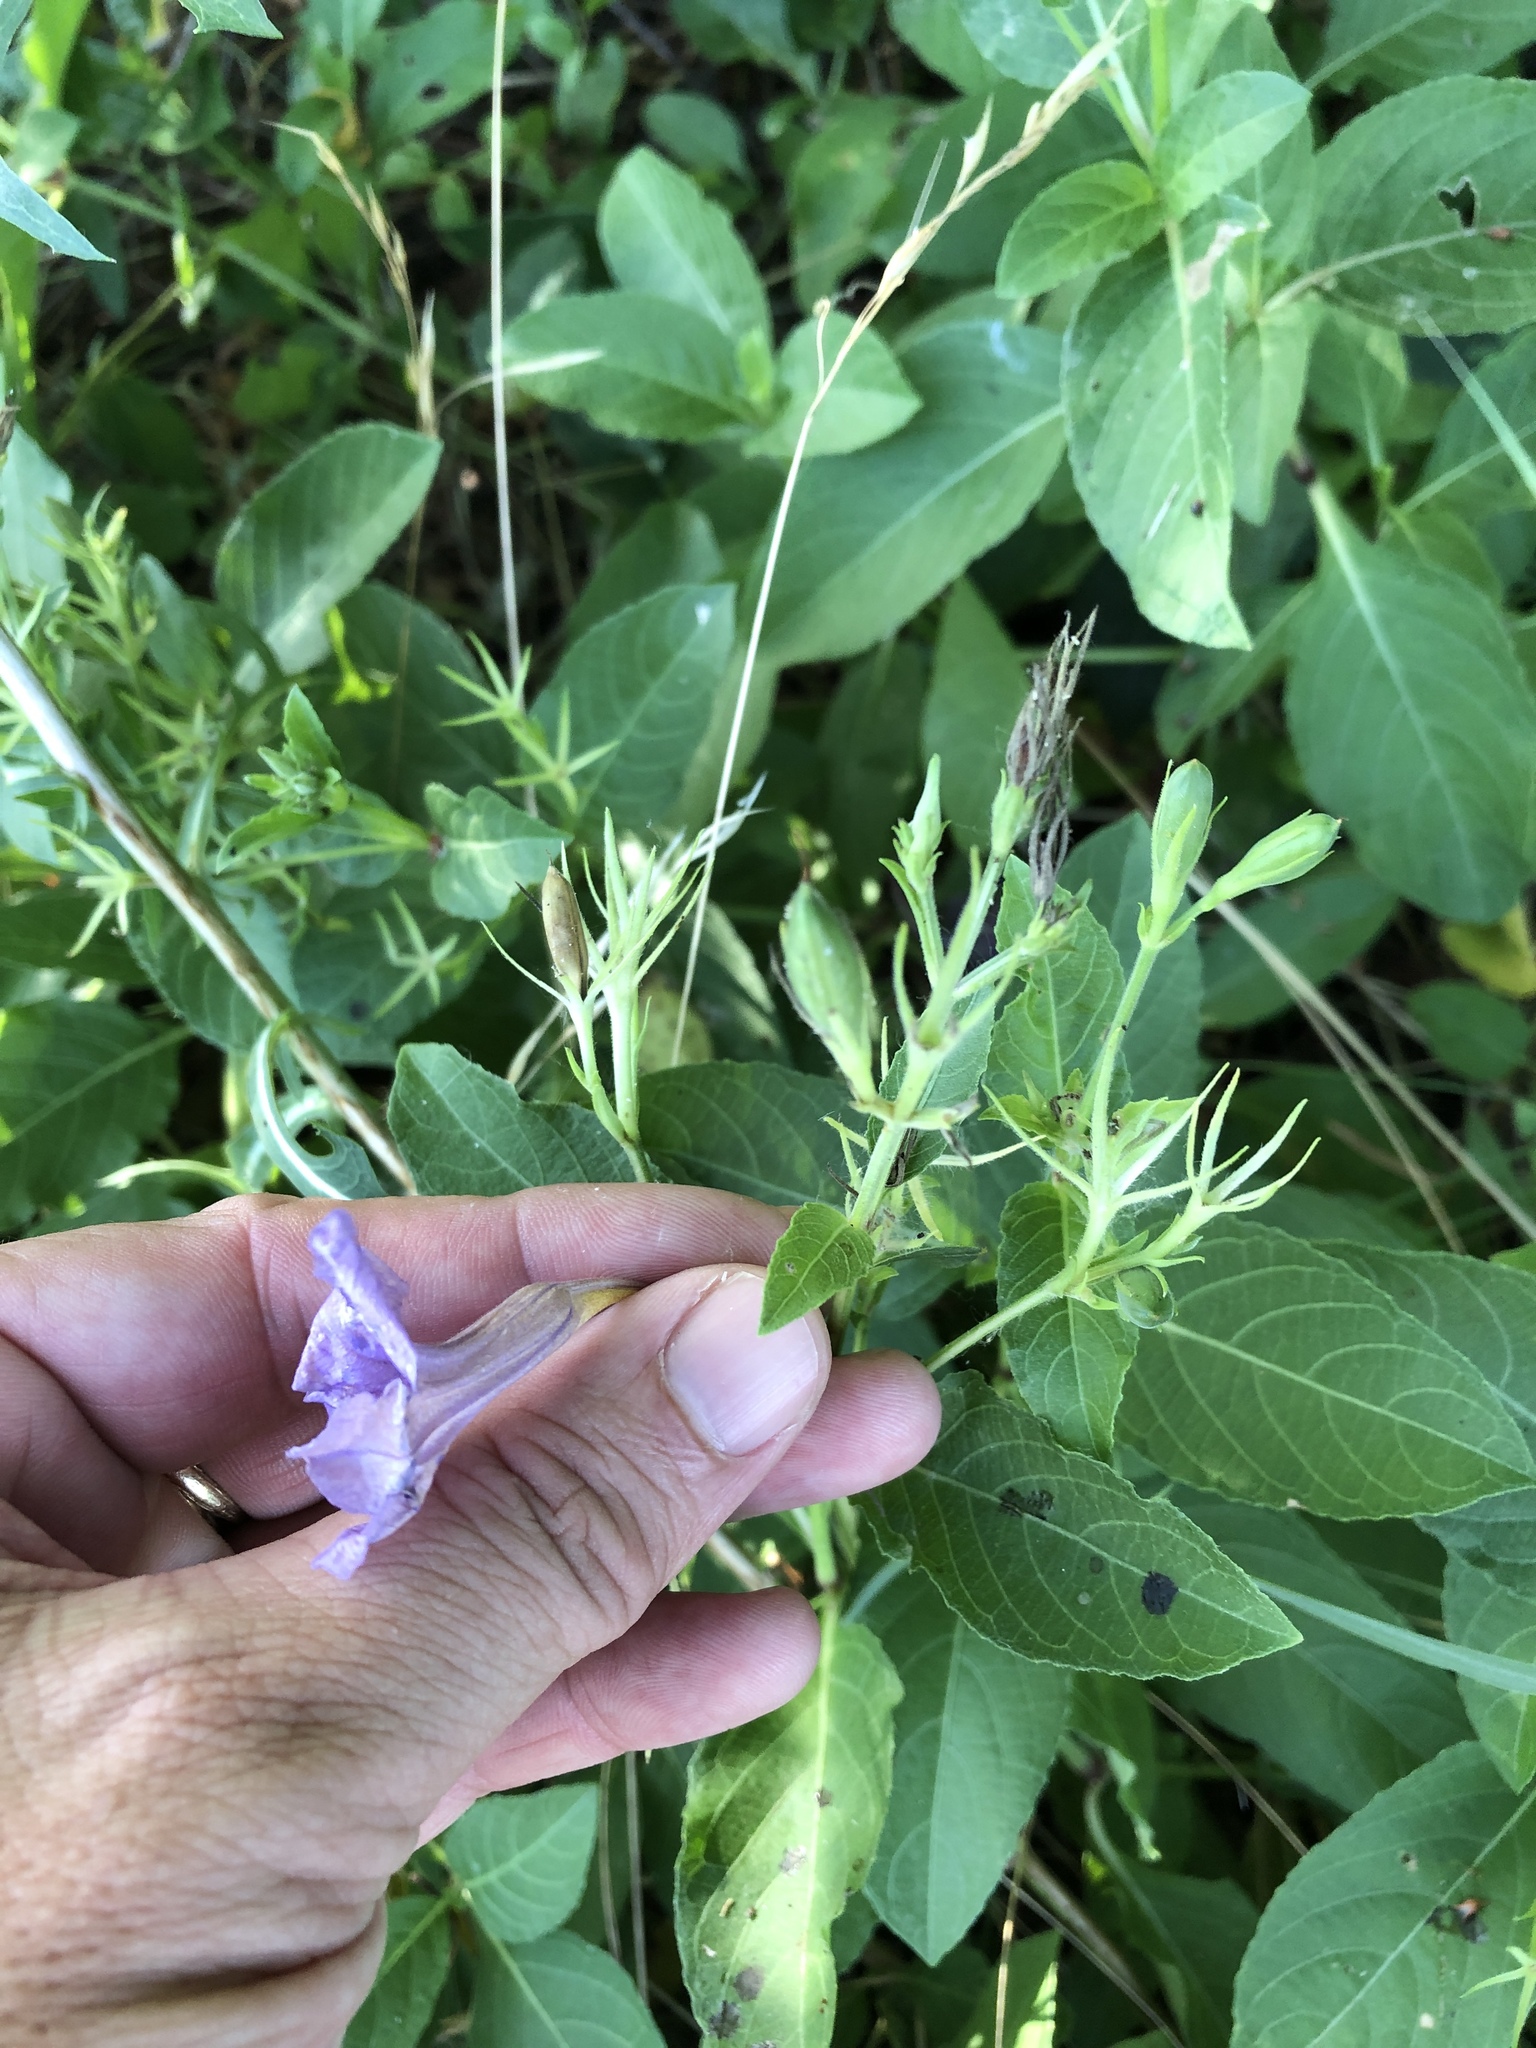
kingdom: Plantae
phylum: Tracheophyta
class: Magnoliopsida
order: Lamiales
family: Acanthaceae
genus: Ruellia
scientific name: Ruellia ciliatiflora
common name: Hairyflower wild petunia
